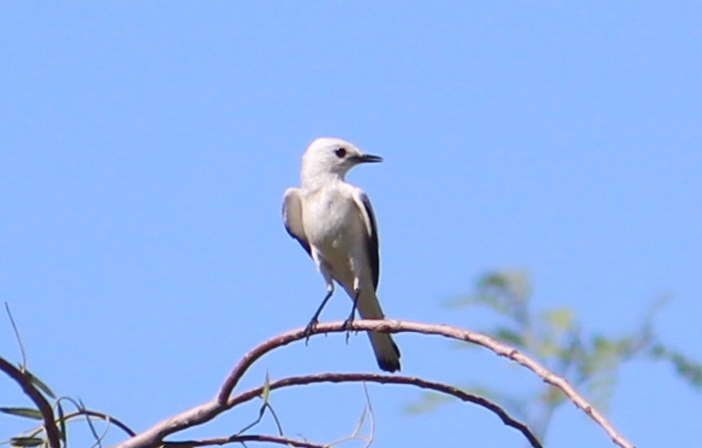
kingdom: Animalia
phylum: Chordata
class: Aves
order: Passeriformes
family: Tyrannidae
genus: Xolmis
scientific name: Xolmis irupero
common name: White monjita
